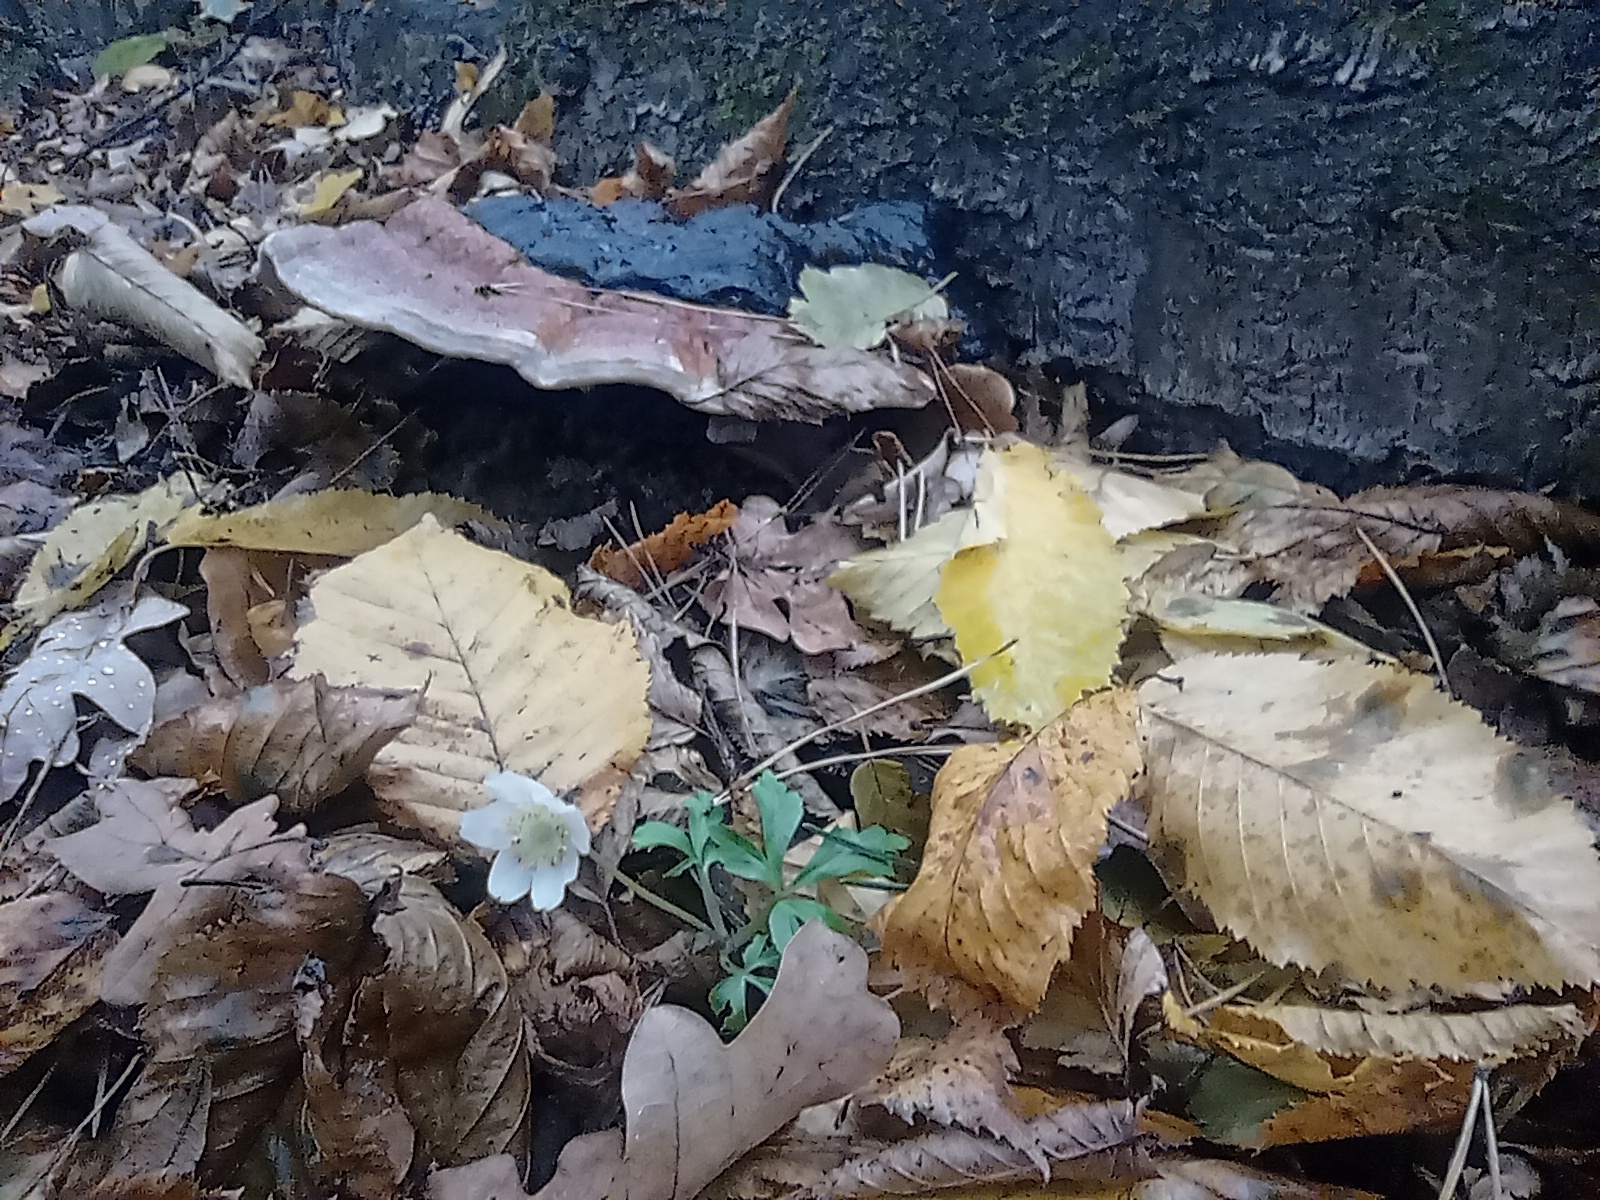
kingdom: Plantae
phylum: Tracheophyta
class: Magnoliopsida
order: Ranunculales
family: Ranunculaceae
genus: Anemone
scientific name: Anemone nemorosa
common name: Wood anemone
